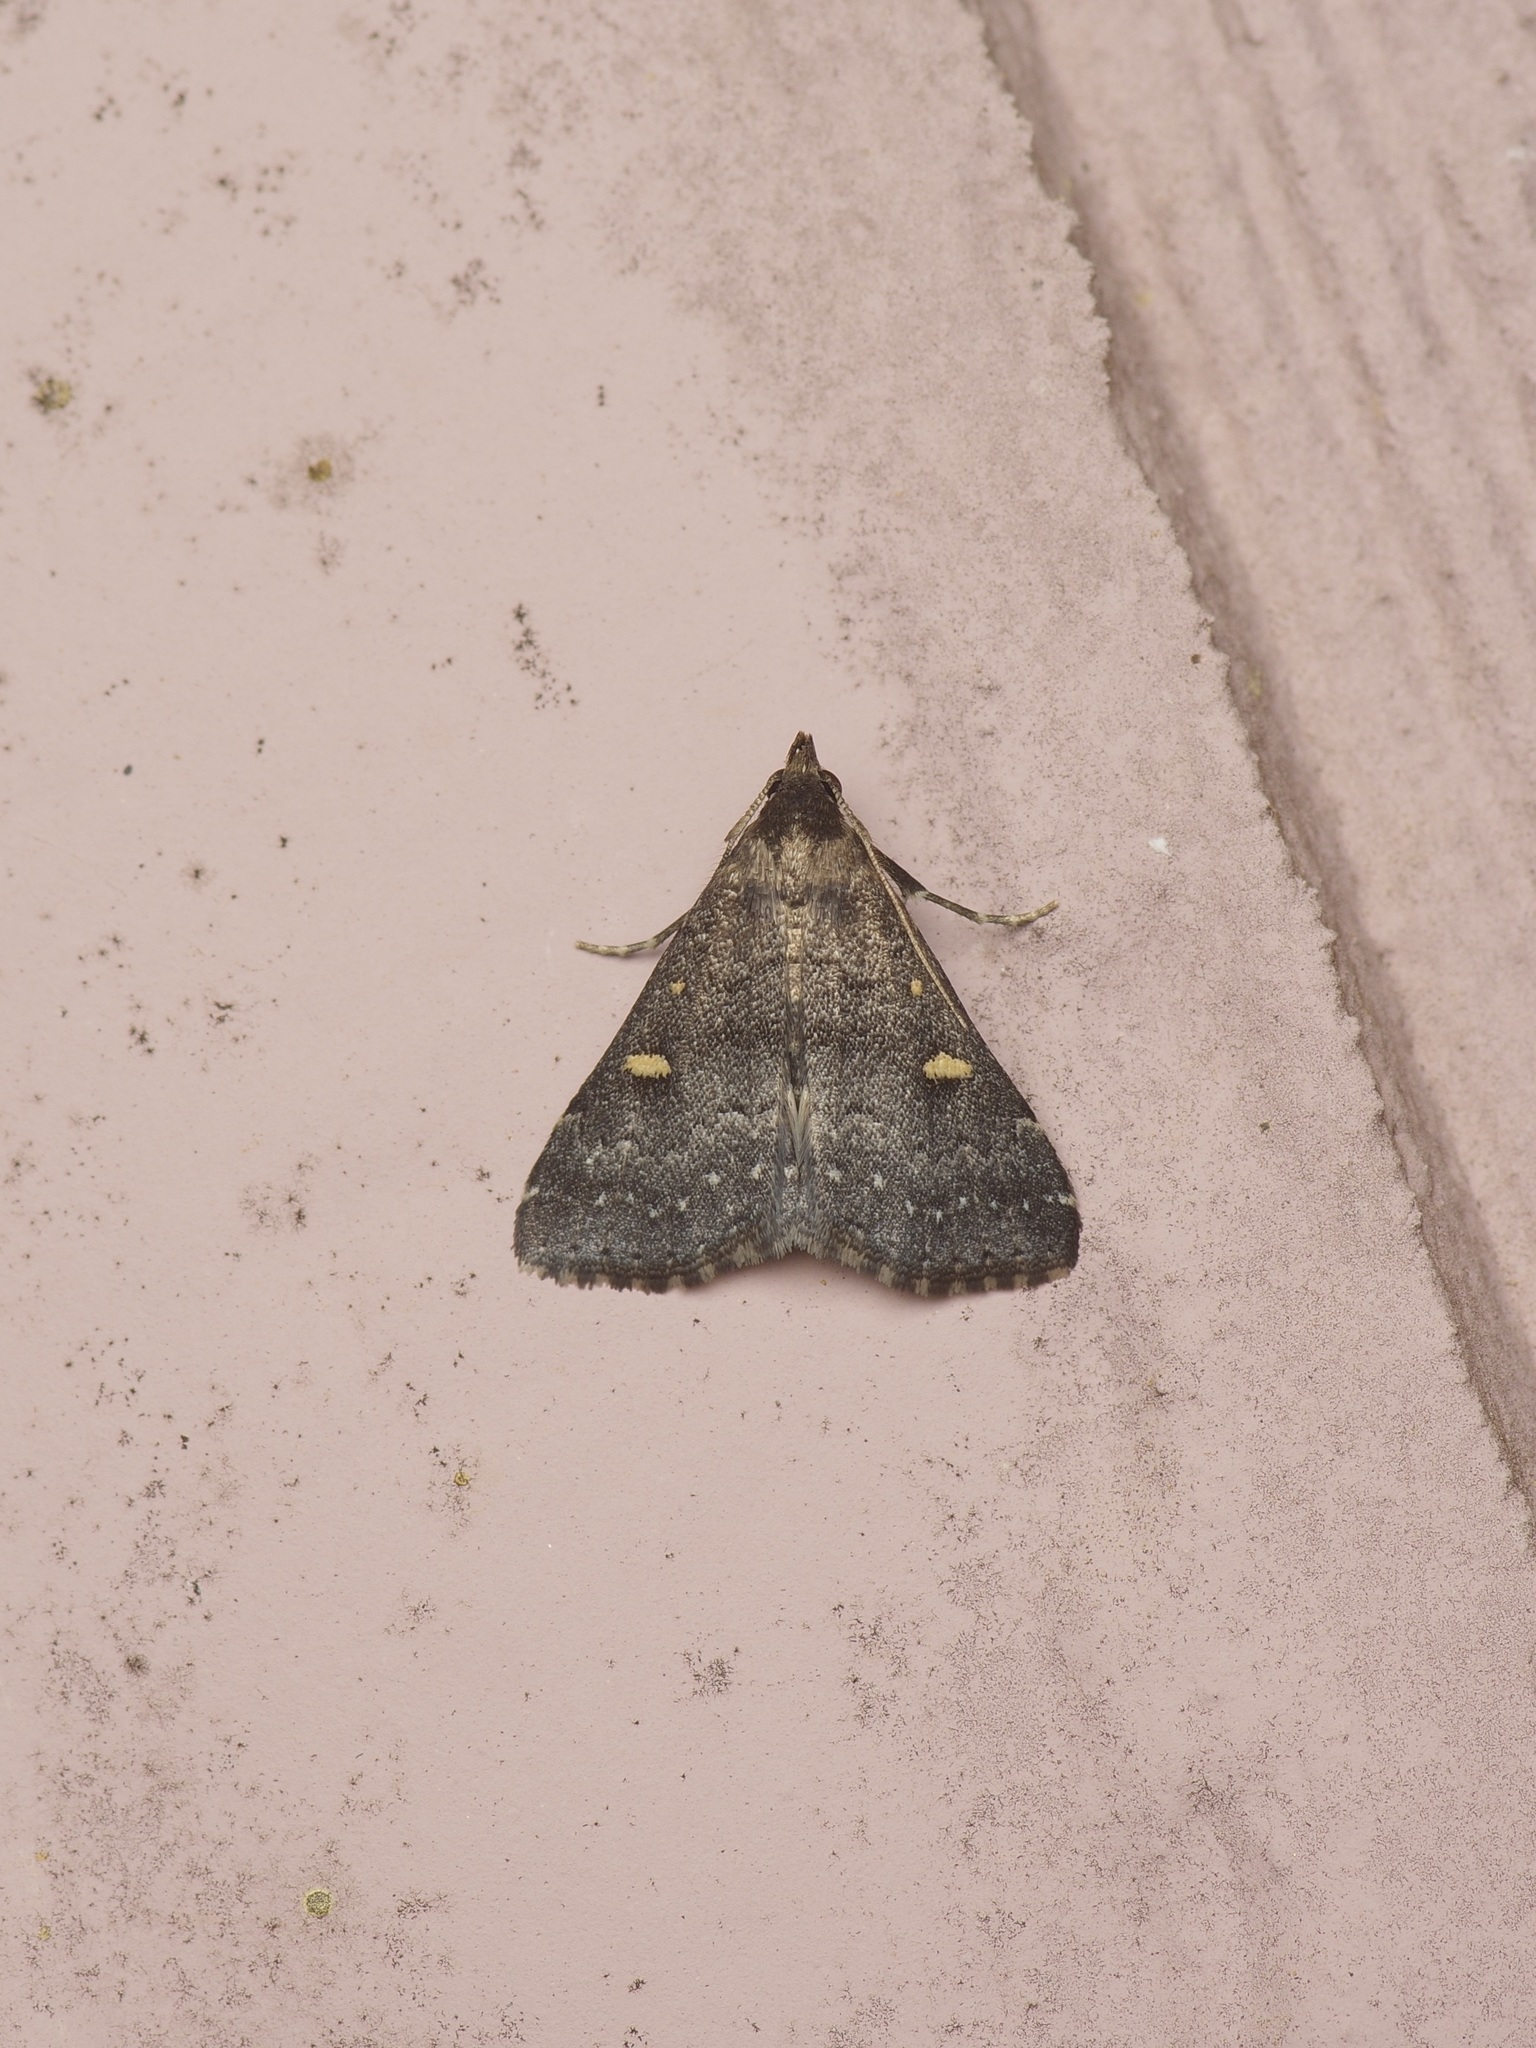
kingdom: Animalia
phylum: Arthropoda
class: Insecta
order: Lepidoptera
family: Erebidae
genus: Tetanolita
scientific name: Tetanolita mynesalis
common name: Smoky tetanolita moth
